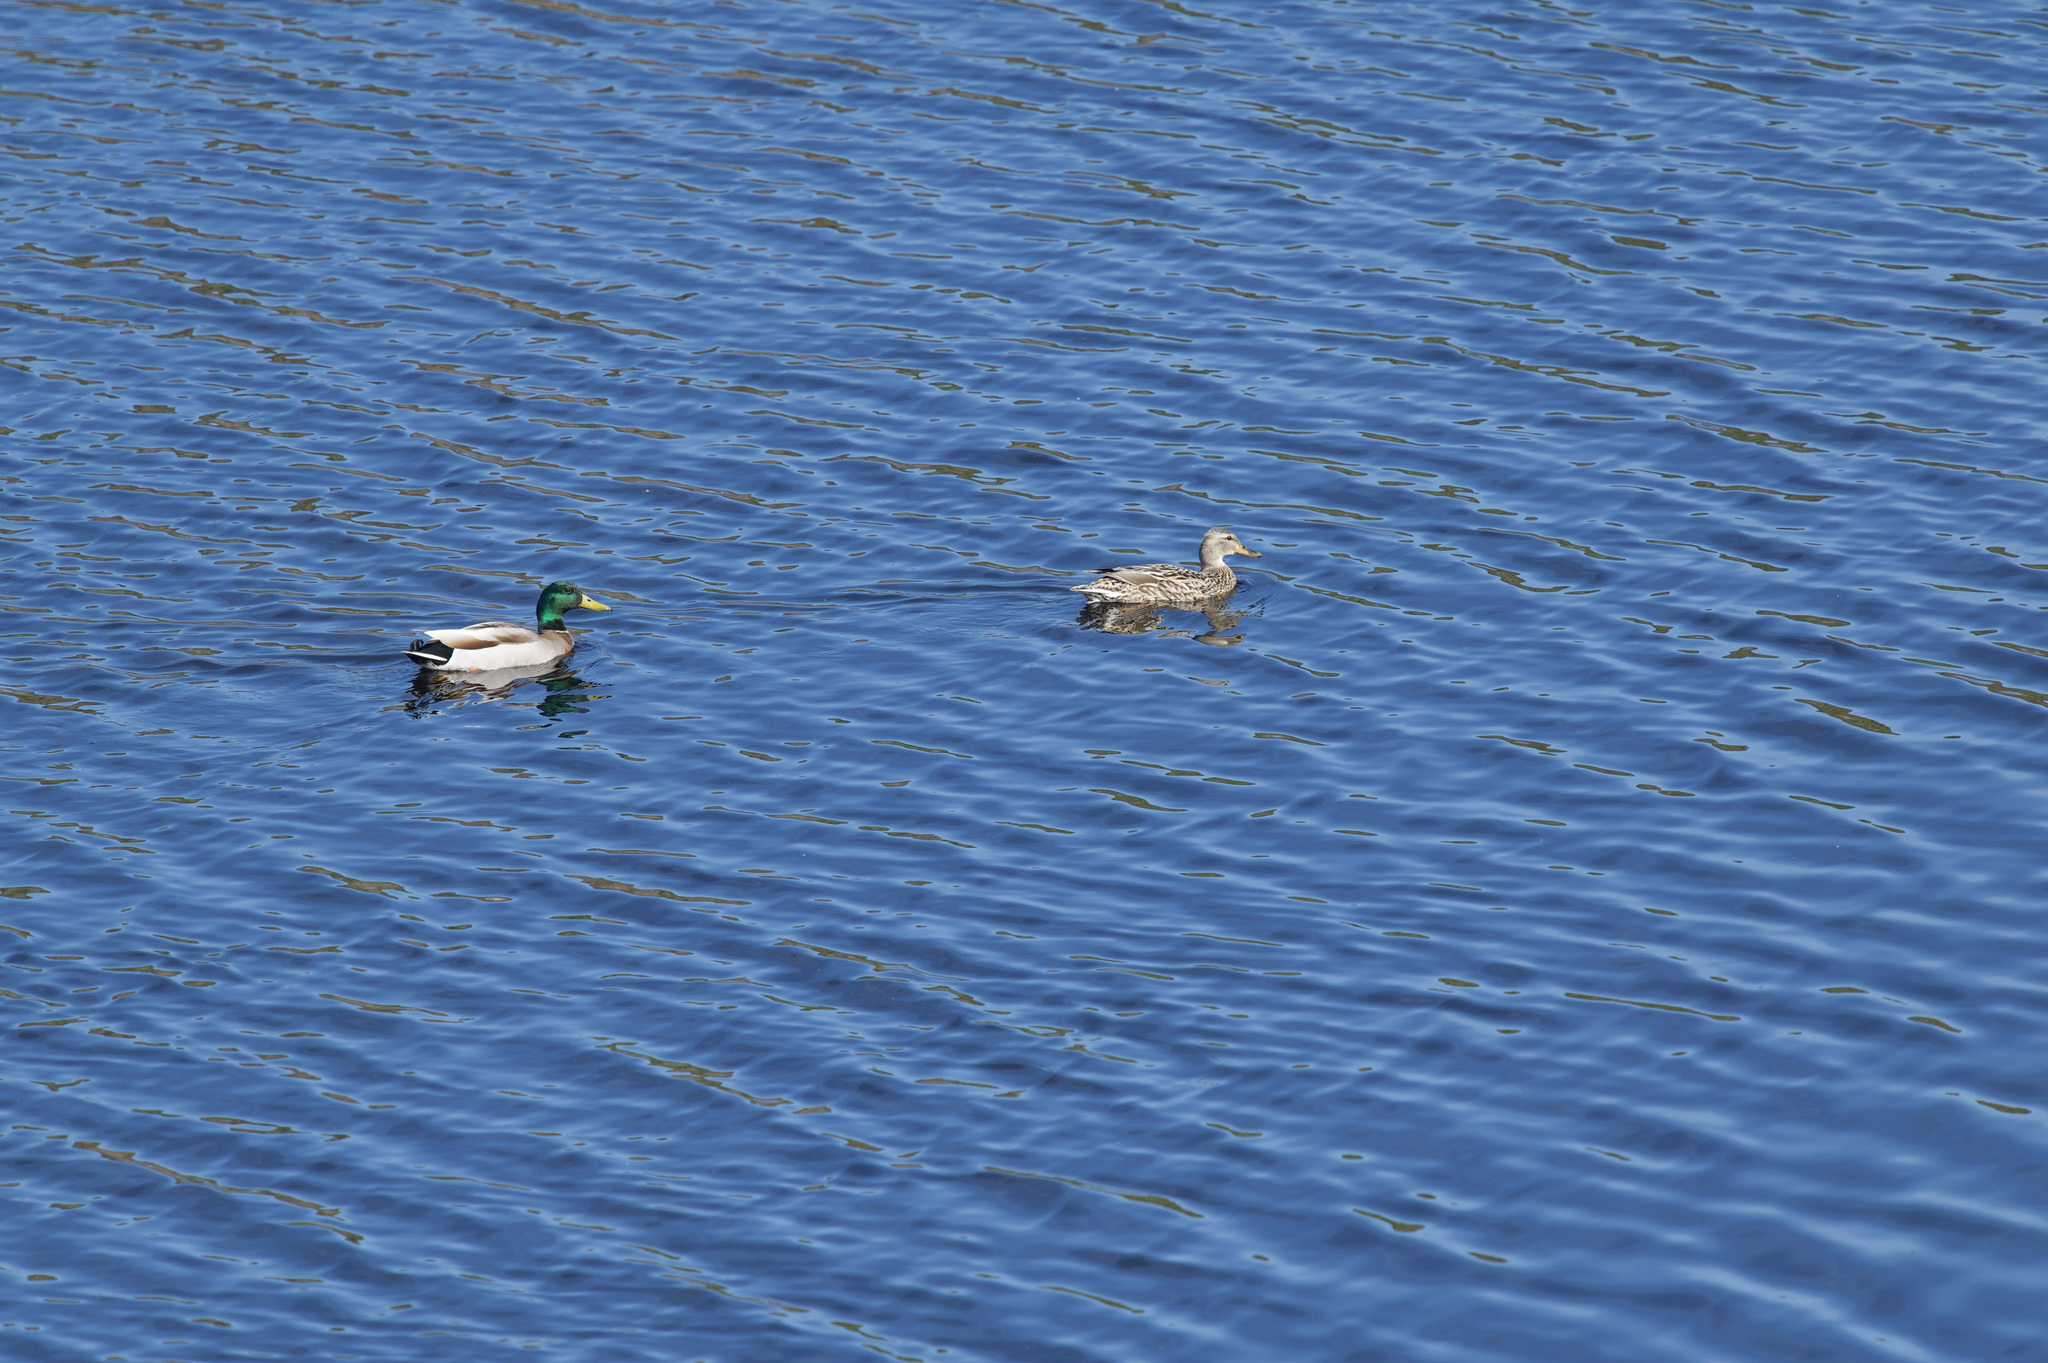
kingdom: Animalia
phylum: Chordata
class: Aves
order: Anseriformes
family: Anatidae
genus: Anas
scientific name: Anas platyrhynchos
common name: Mallard
